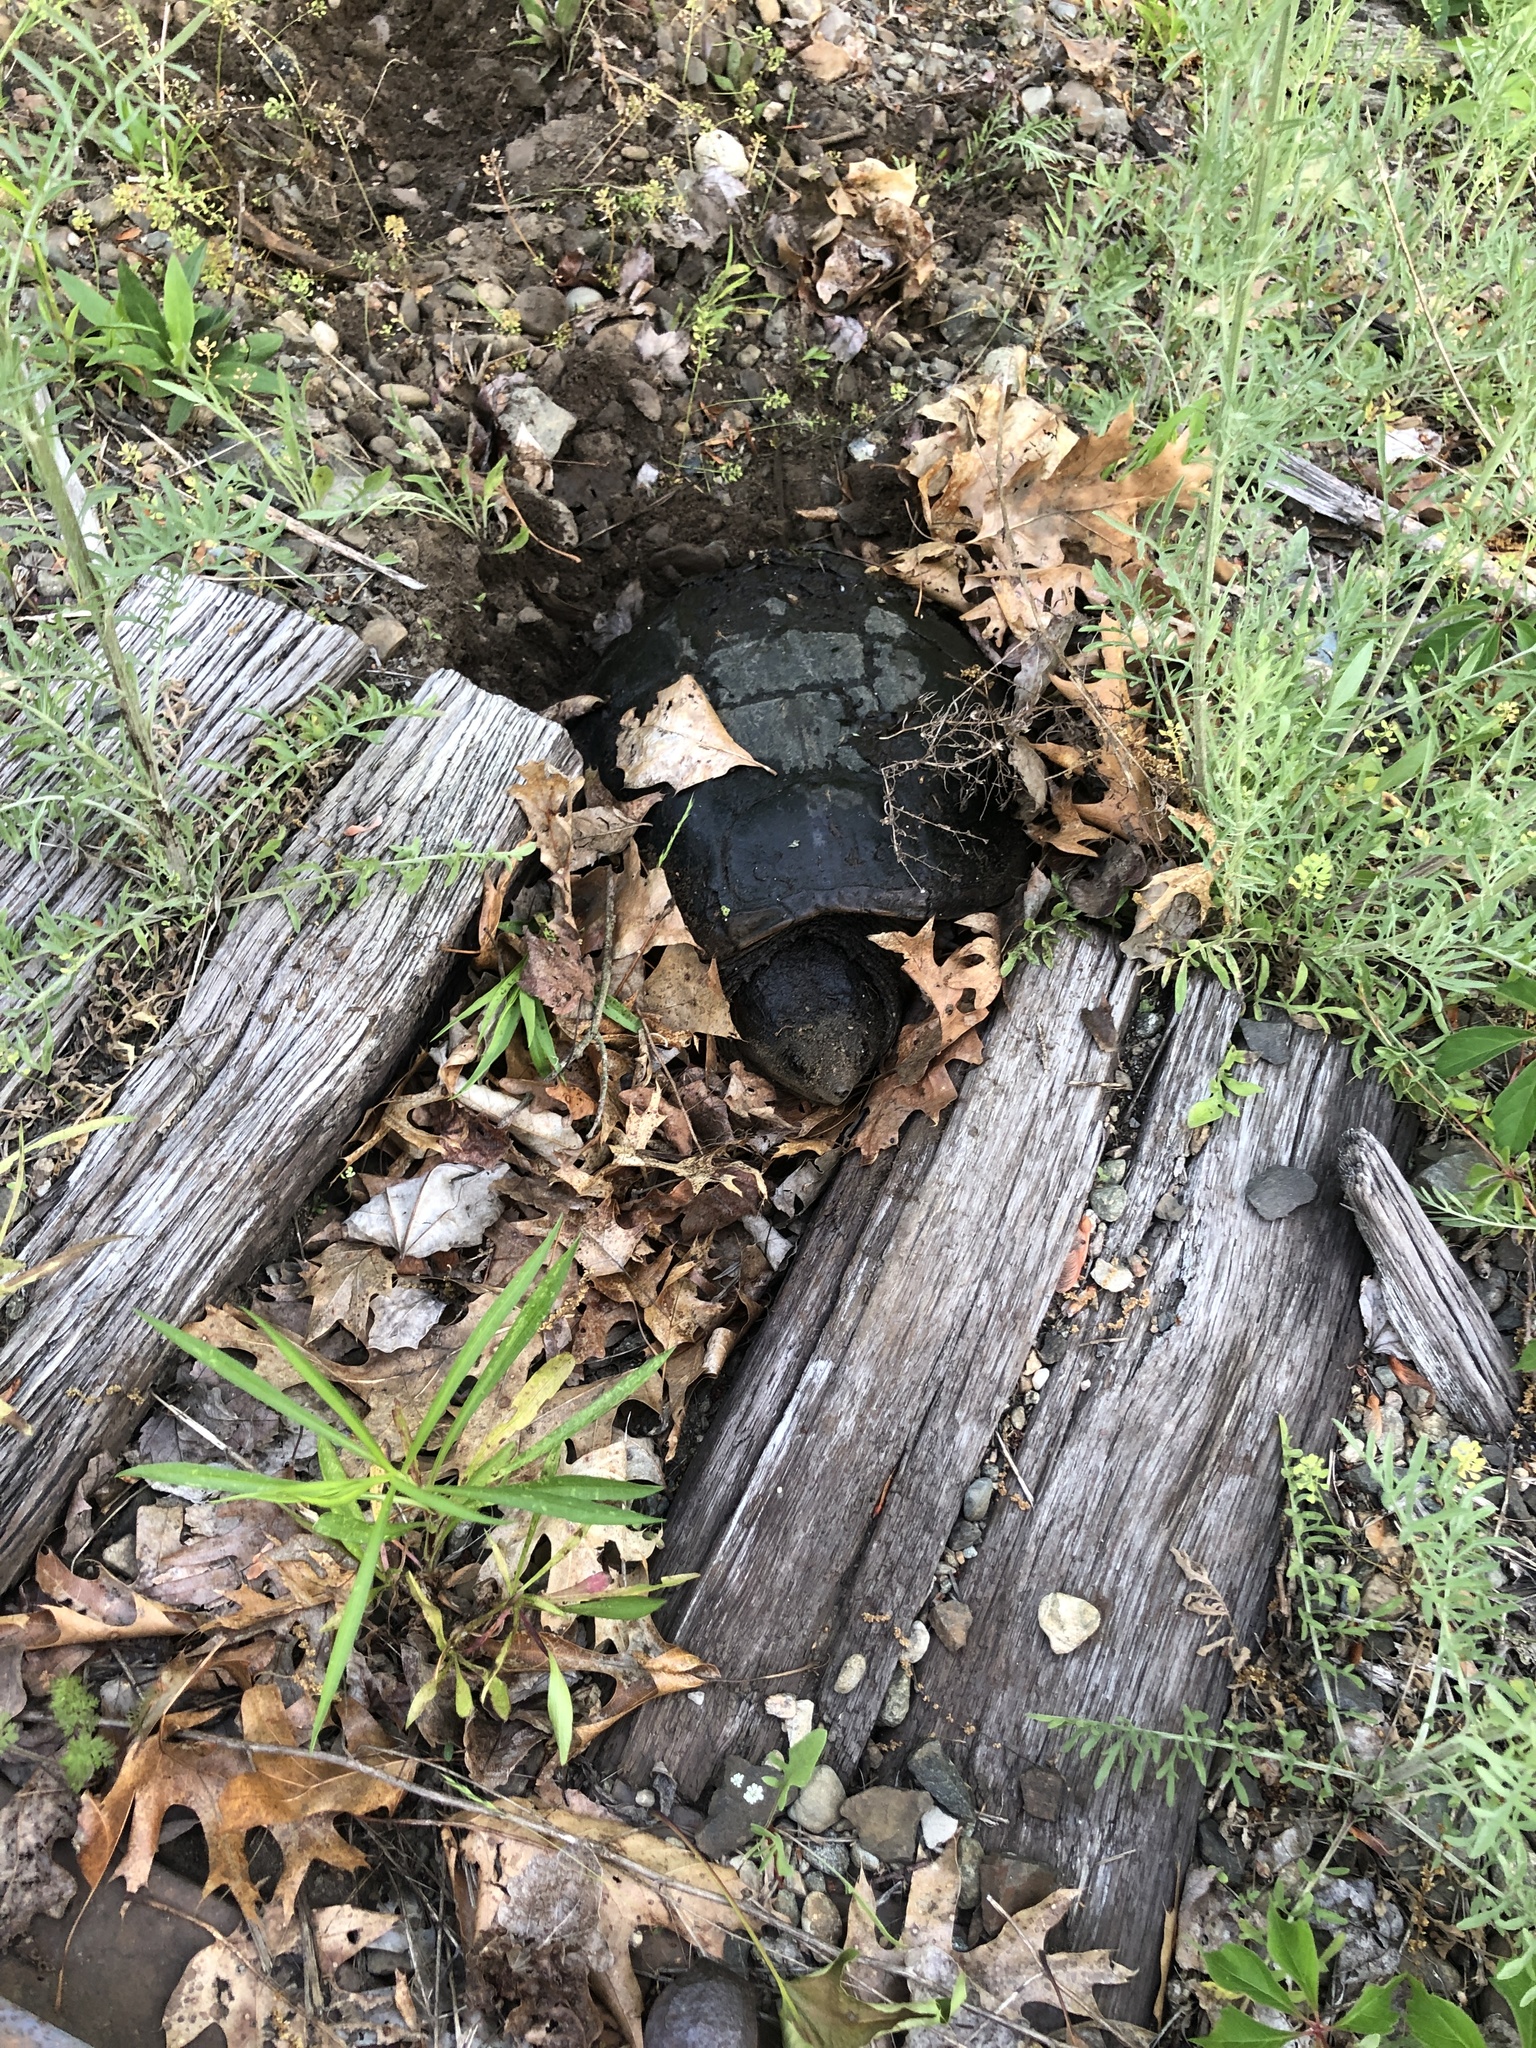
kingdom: Animalia
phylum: Chordata
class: Testudines
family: Chelydridae
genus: Chelydra
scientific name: Chelydra serpentina
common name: Common snapping turtle
